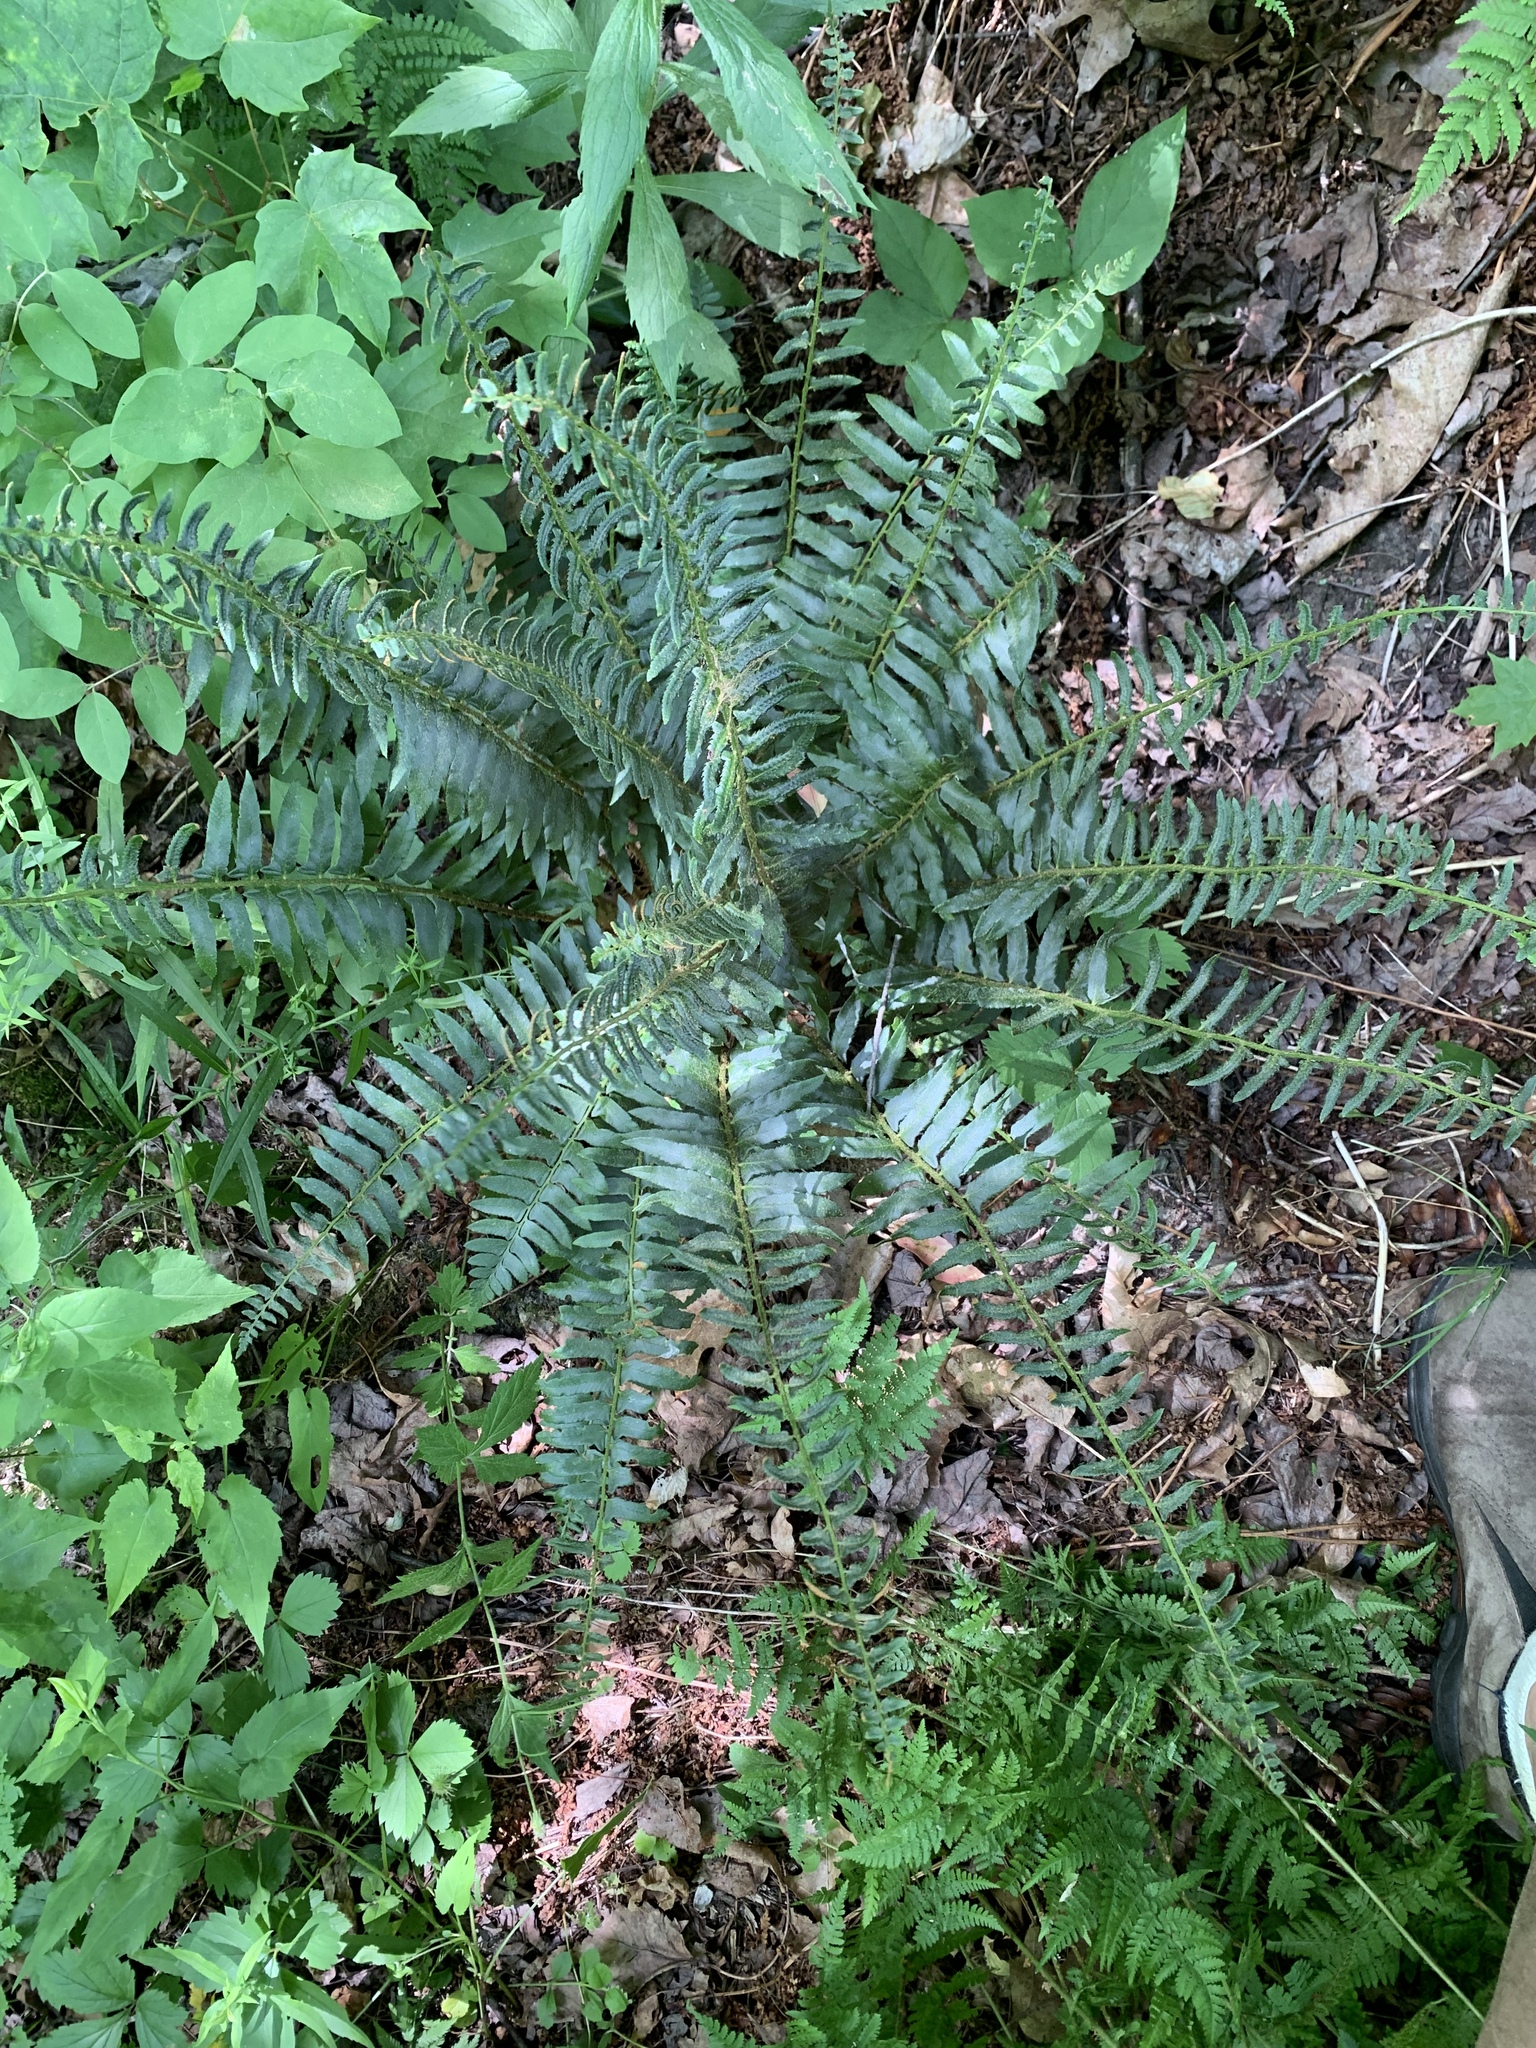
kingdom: Plantae
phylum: Tracheophyta
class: Polypodiopsida
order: Polypodiales
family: Dryopteridaceae
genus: Polystichum
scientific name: Polystichum acrostichoides
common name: Christmas fern
